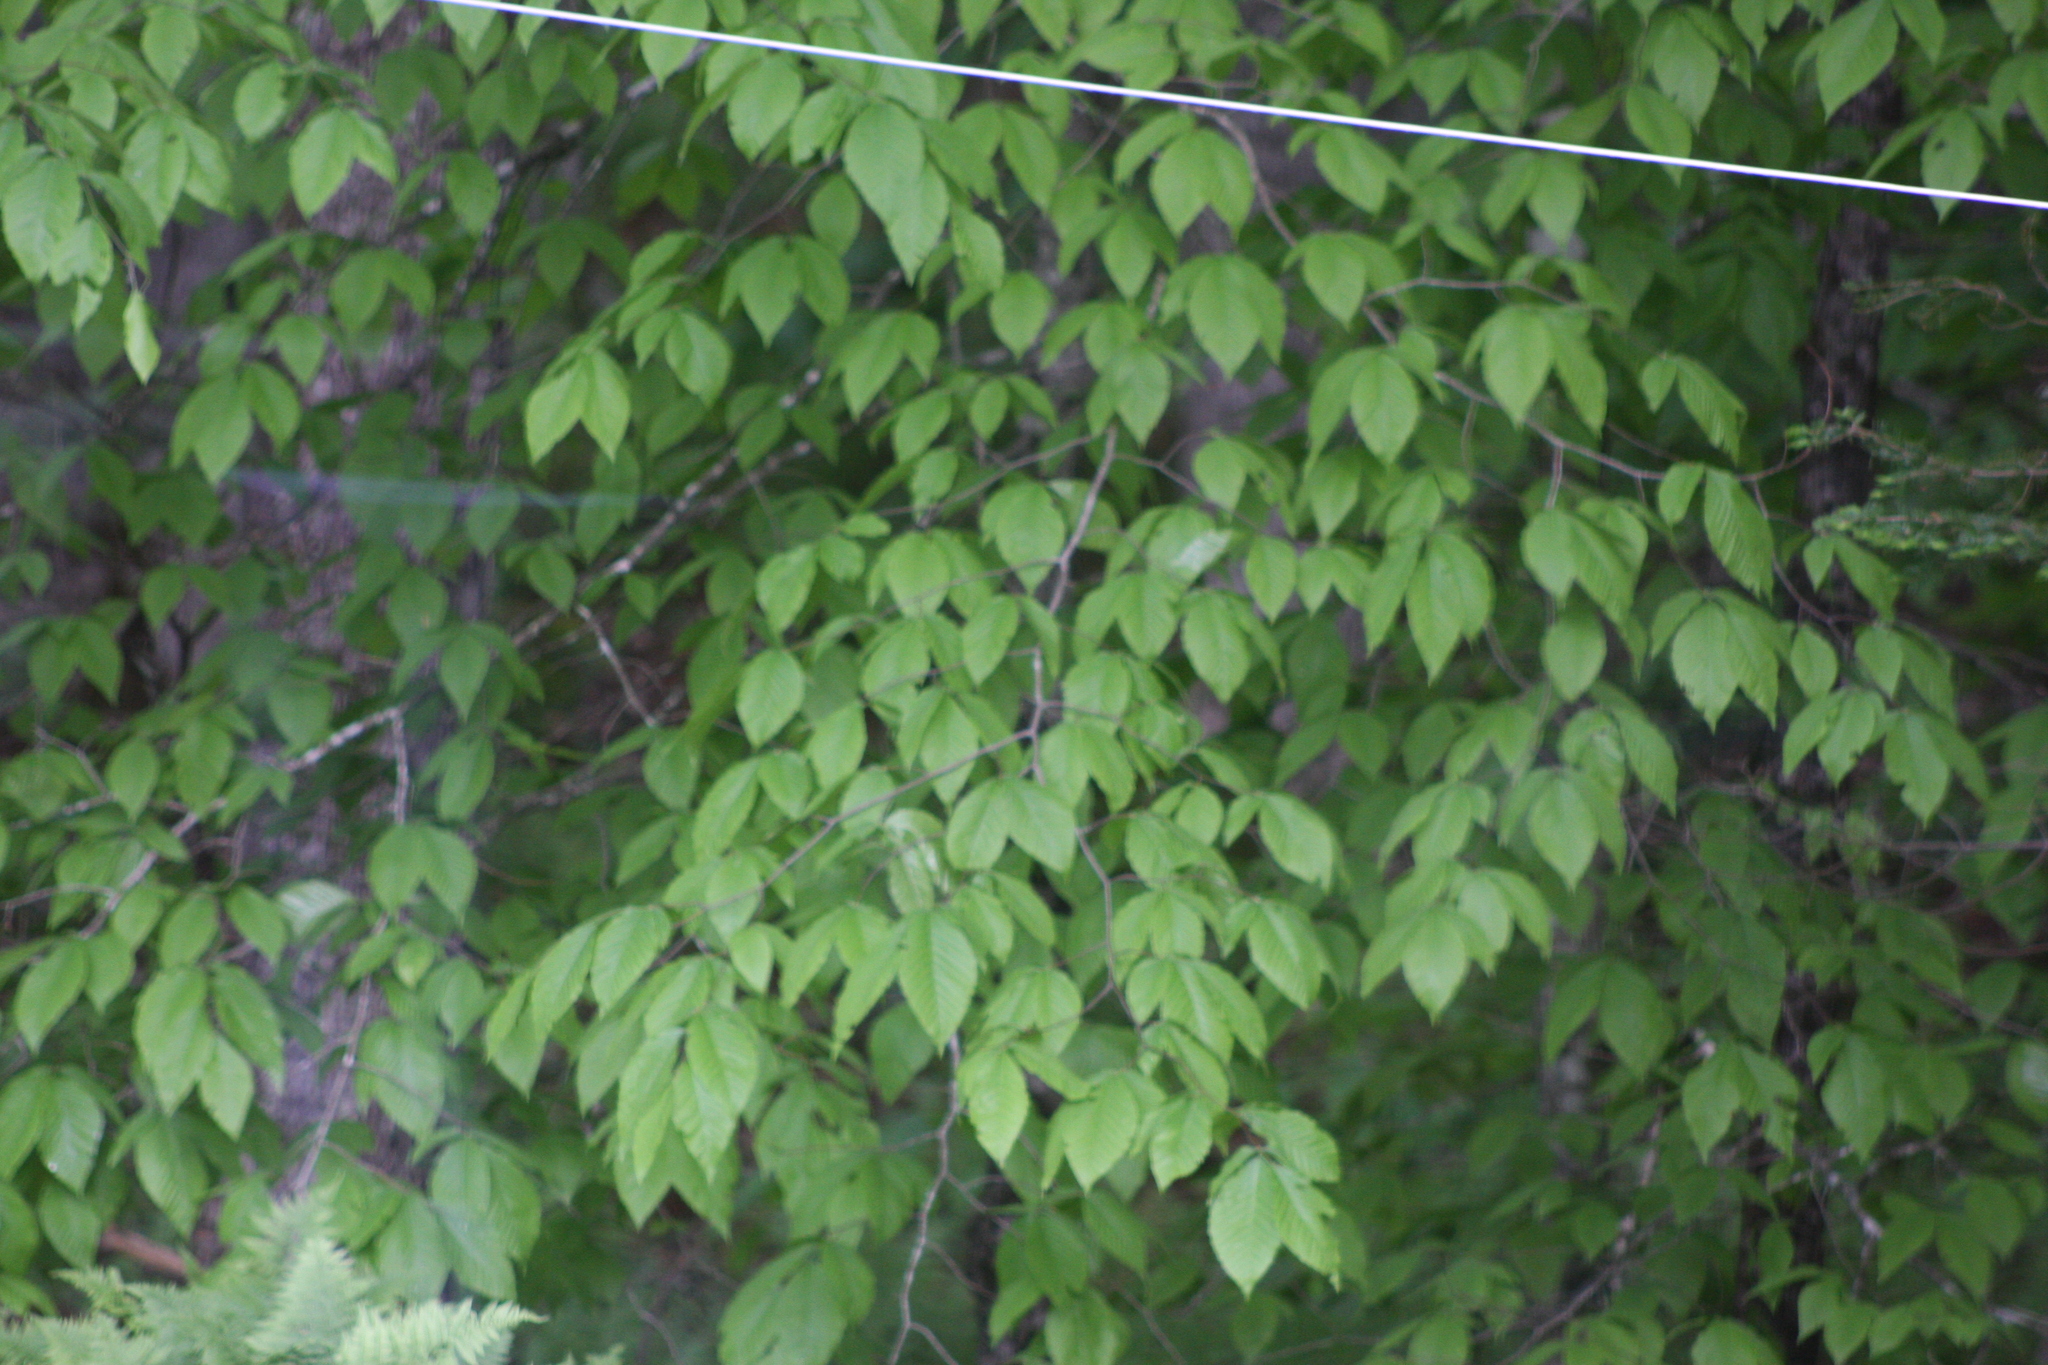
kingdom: Plantae
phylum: Tracheophyta
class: Magnoliopsida
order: Fagales
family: Fagaceae
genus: Fagus
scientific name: Fagus grandifolia
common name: American beech
